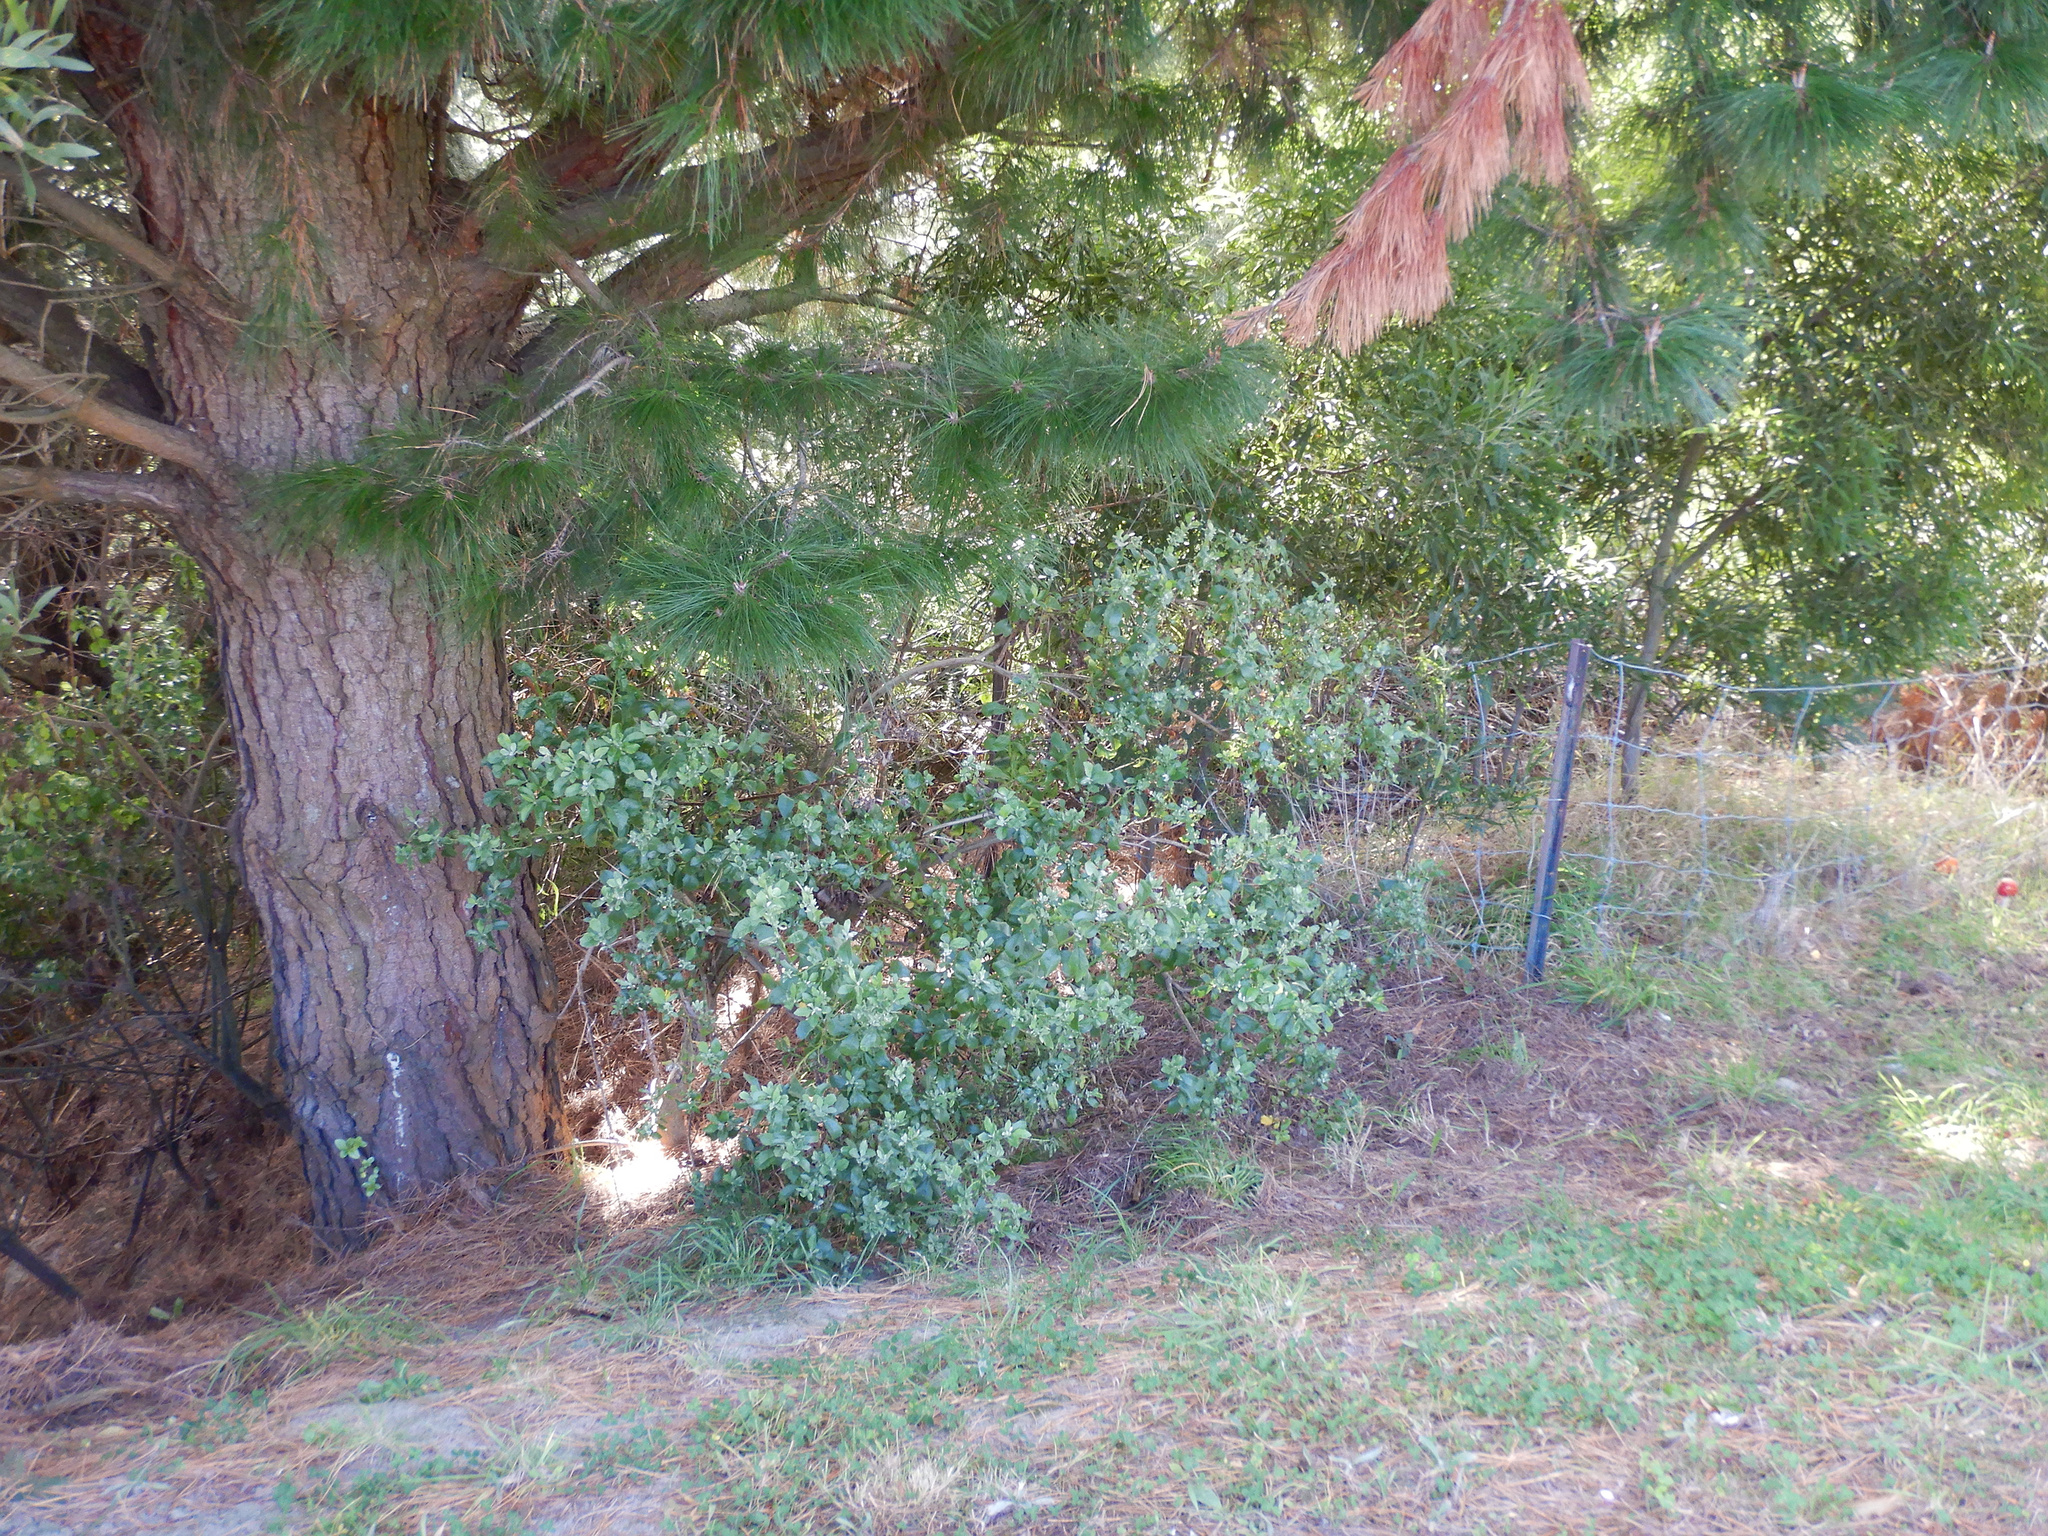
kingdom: Plantae
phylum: Tracheophyta
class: Magnoliopsida
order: Asterales
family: Asteraceae
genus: Osteospermum
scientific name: Osteospermum moniliferum
